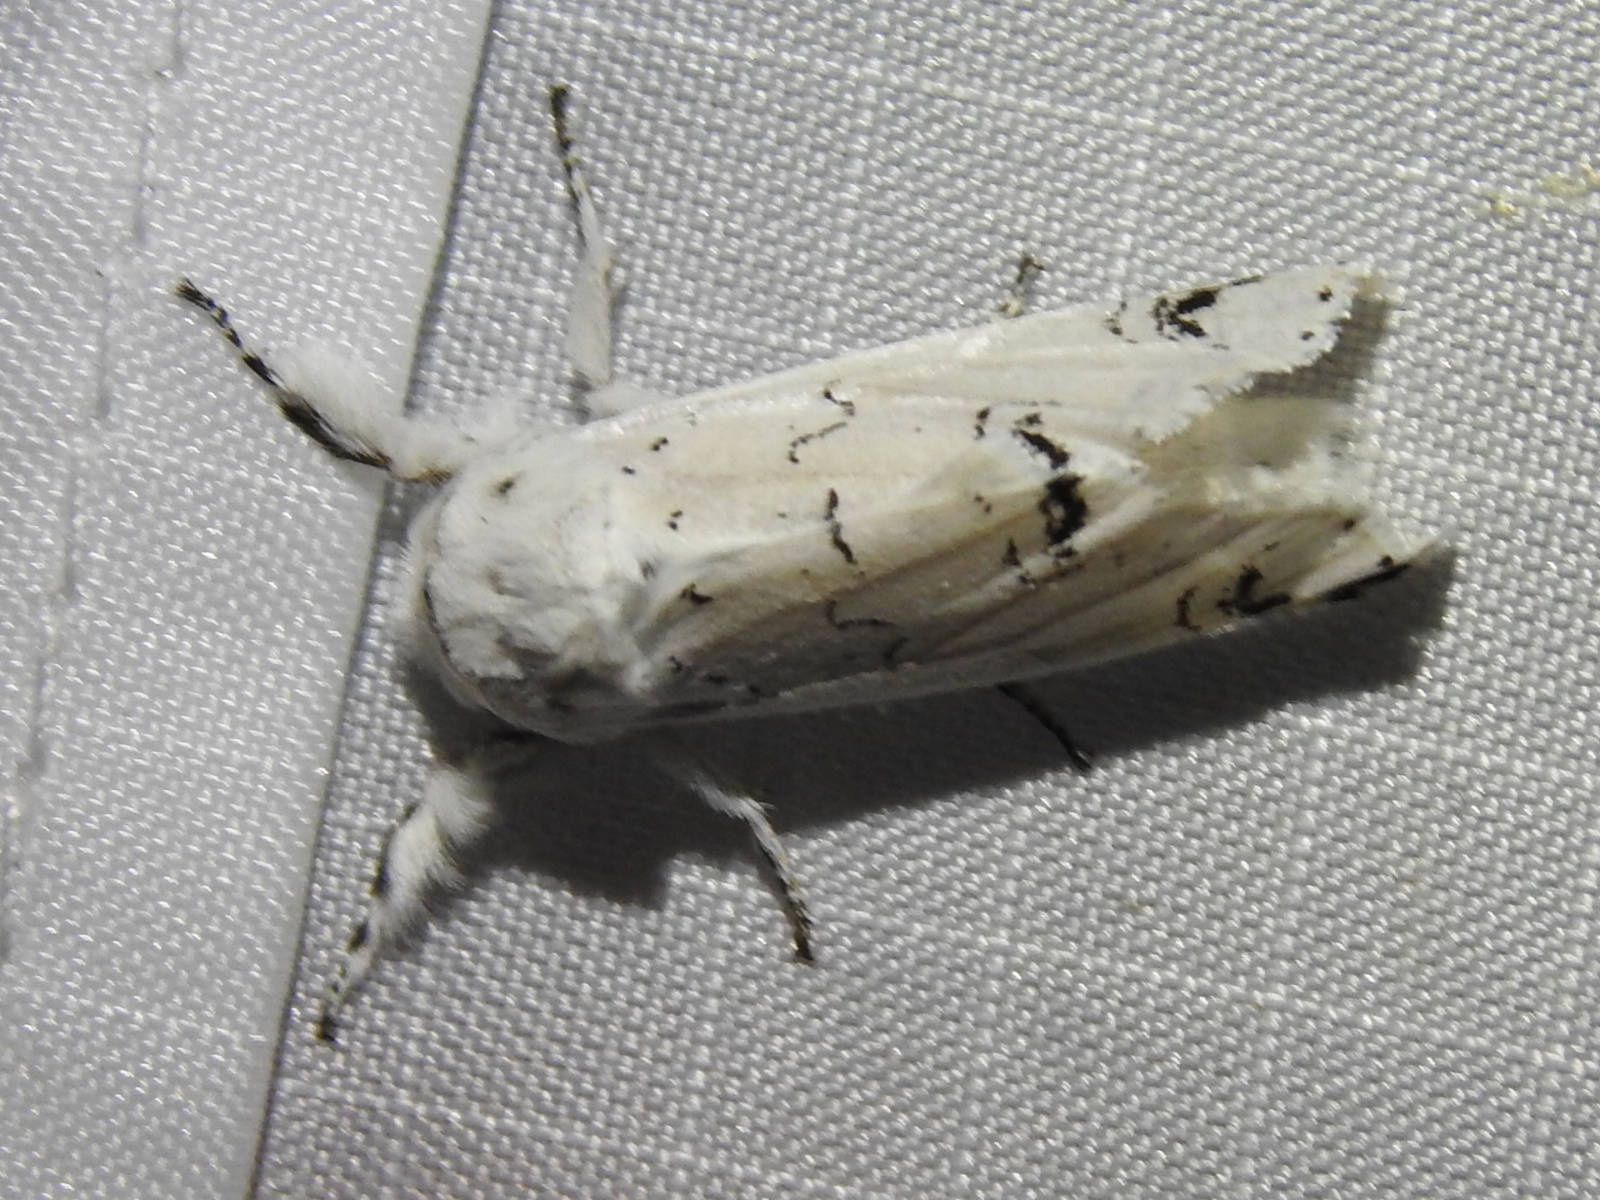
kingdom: Animalia
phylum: Arthropoda
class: Insecta
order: Lepidoptera
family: Notodontidae
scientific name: Notodontidae
